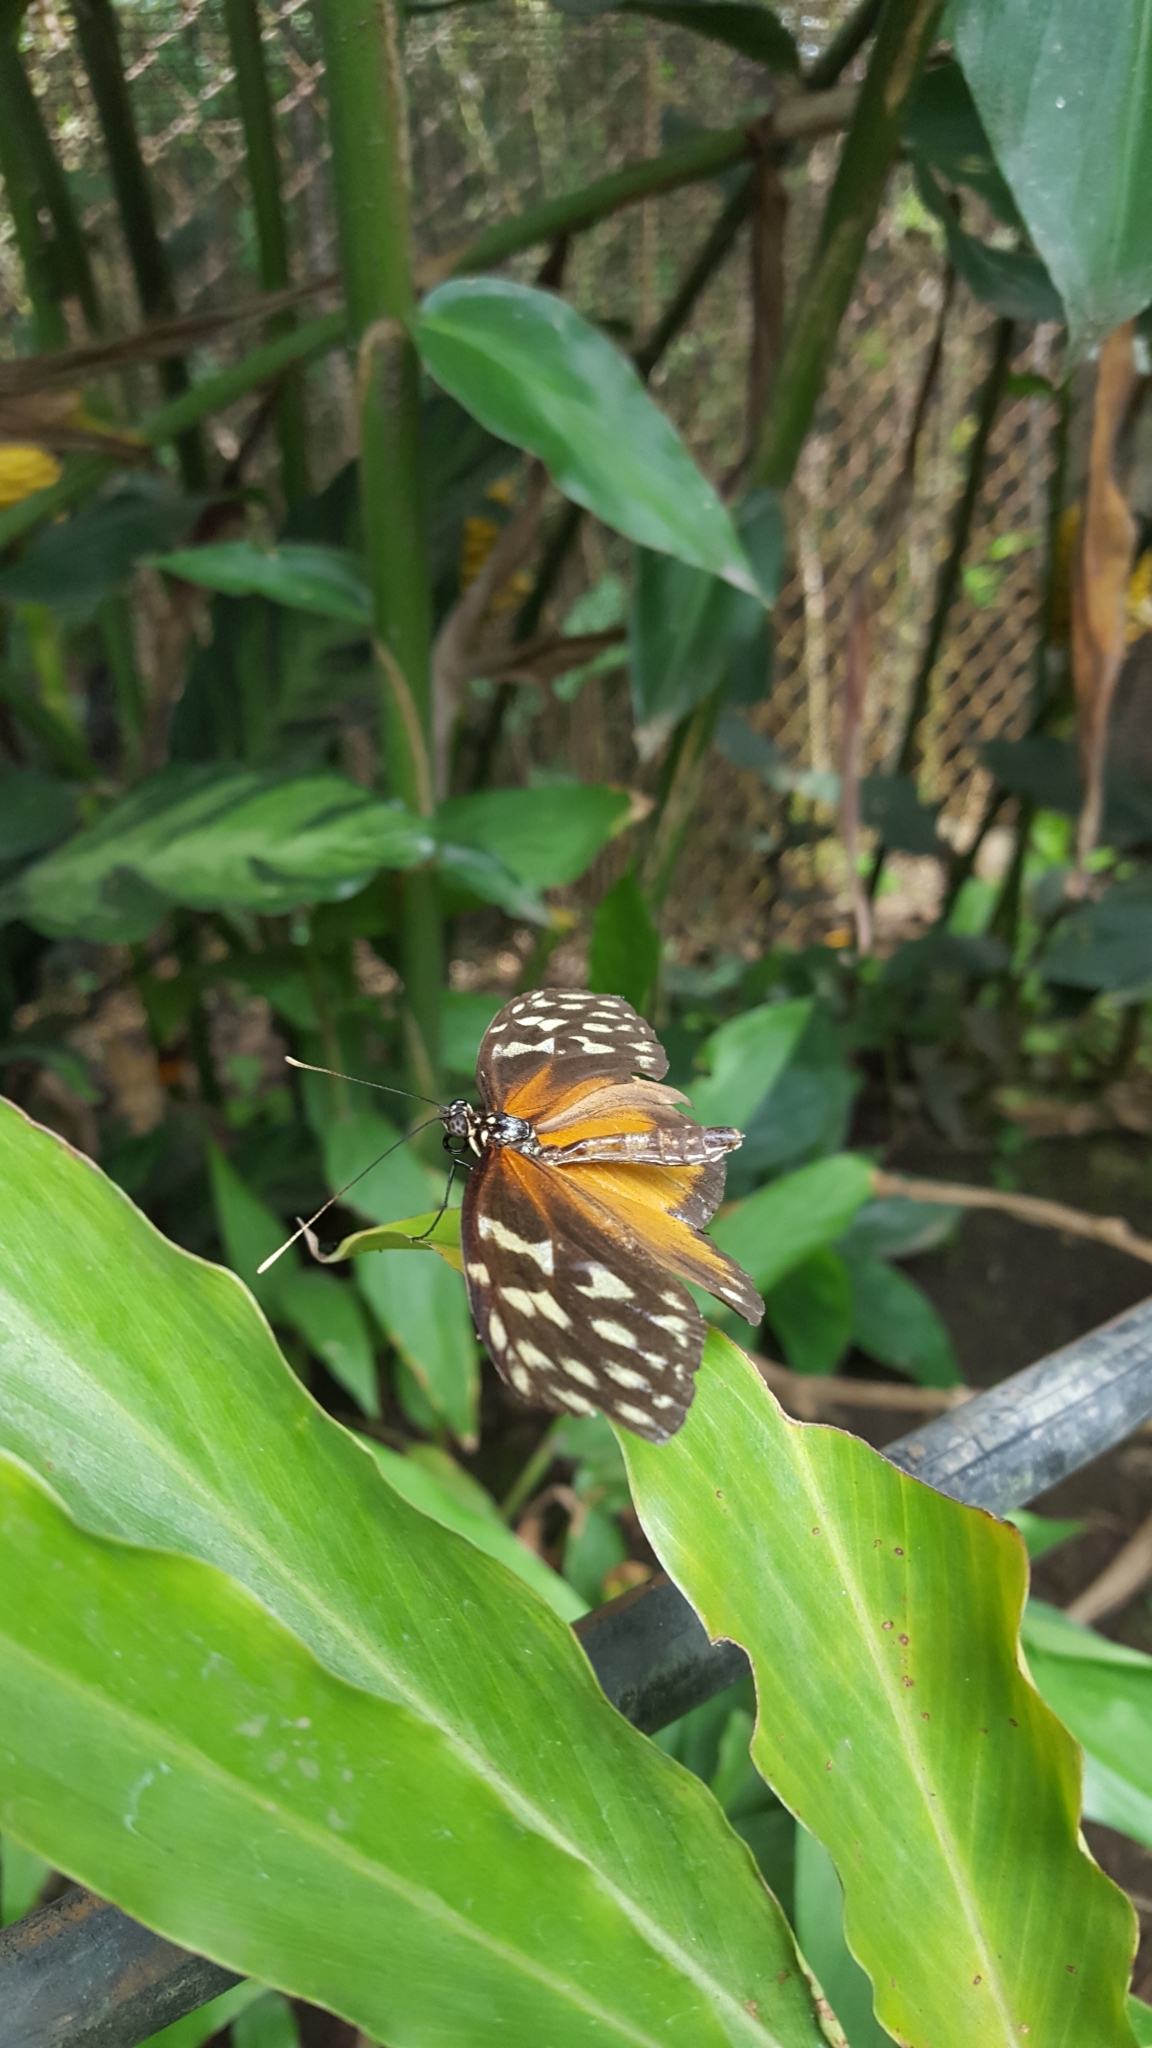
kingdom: Animalia
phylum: Arthropoda
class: Insecta
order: Lepidoptera
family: Nymphalidae
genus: Heliconius
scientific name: Heliconius hecale
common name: Tiger longwing
